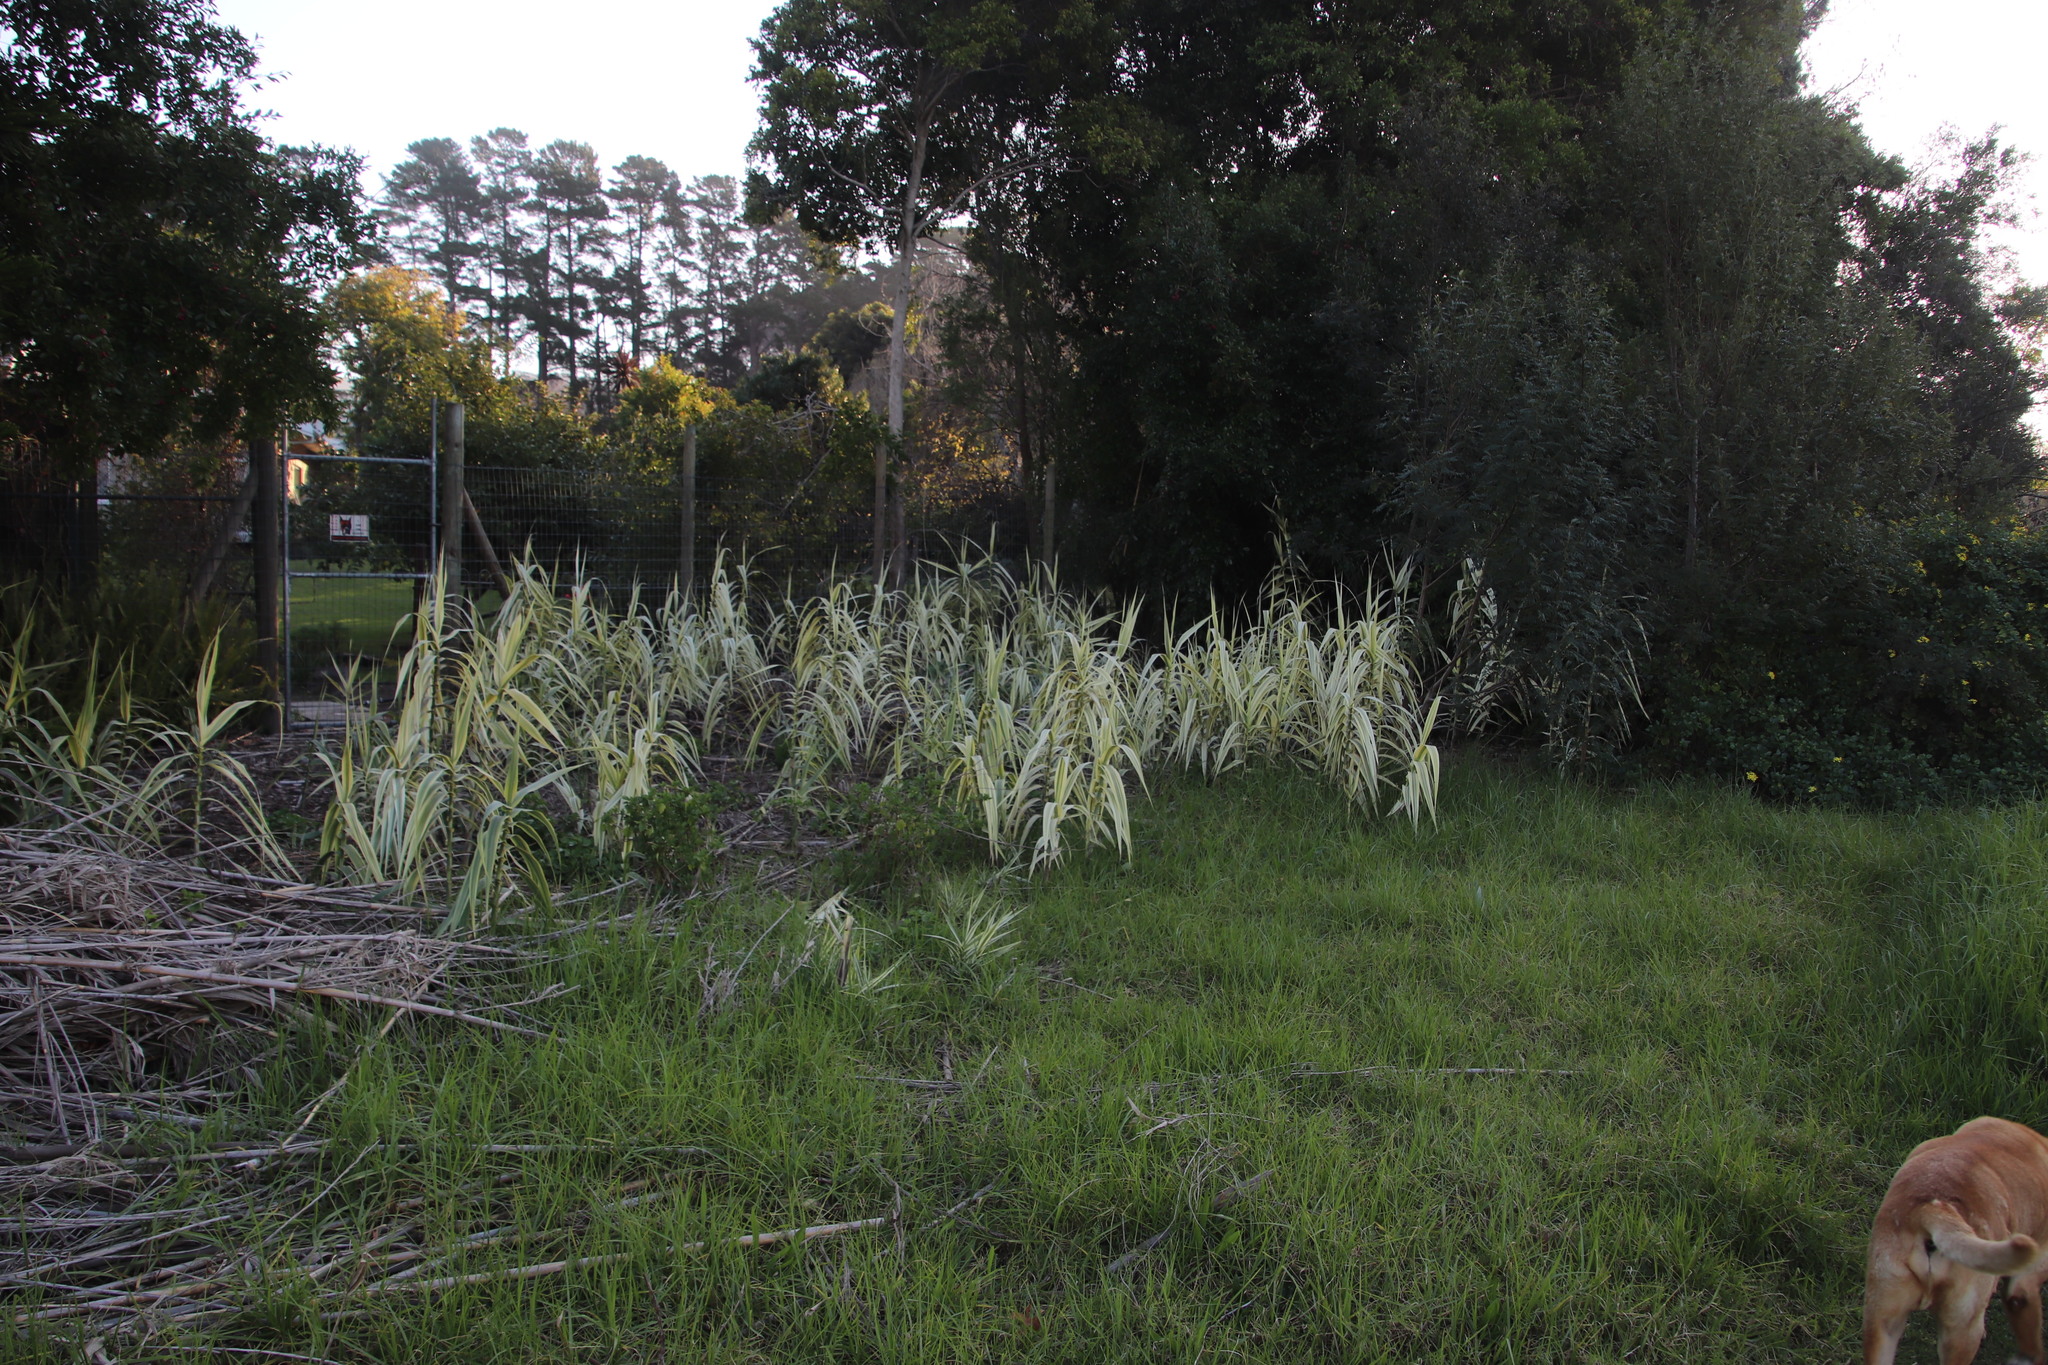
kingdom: Plantae
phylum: Tracheophyta
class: Liliopsida
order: Poales
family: Poaceae
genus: Arundo
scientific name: Arundo donax
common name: Giant reed
